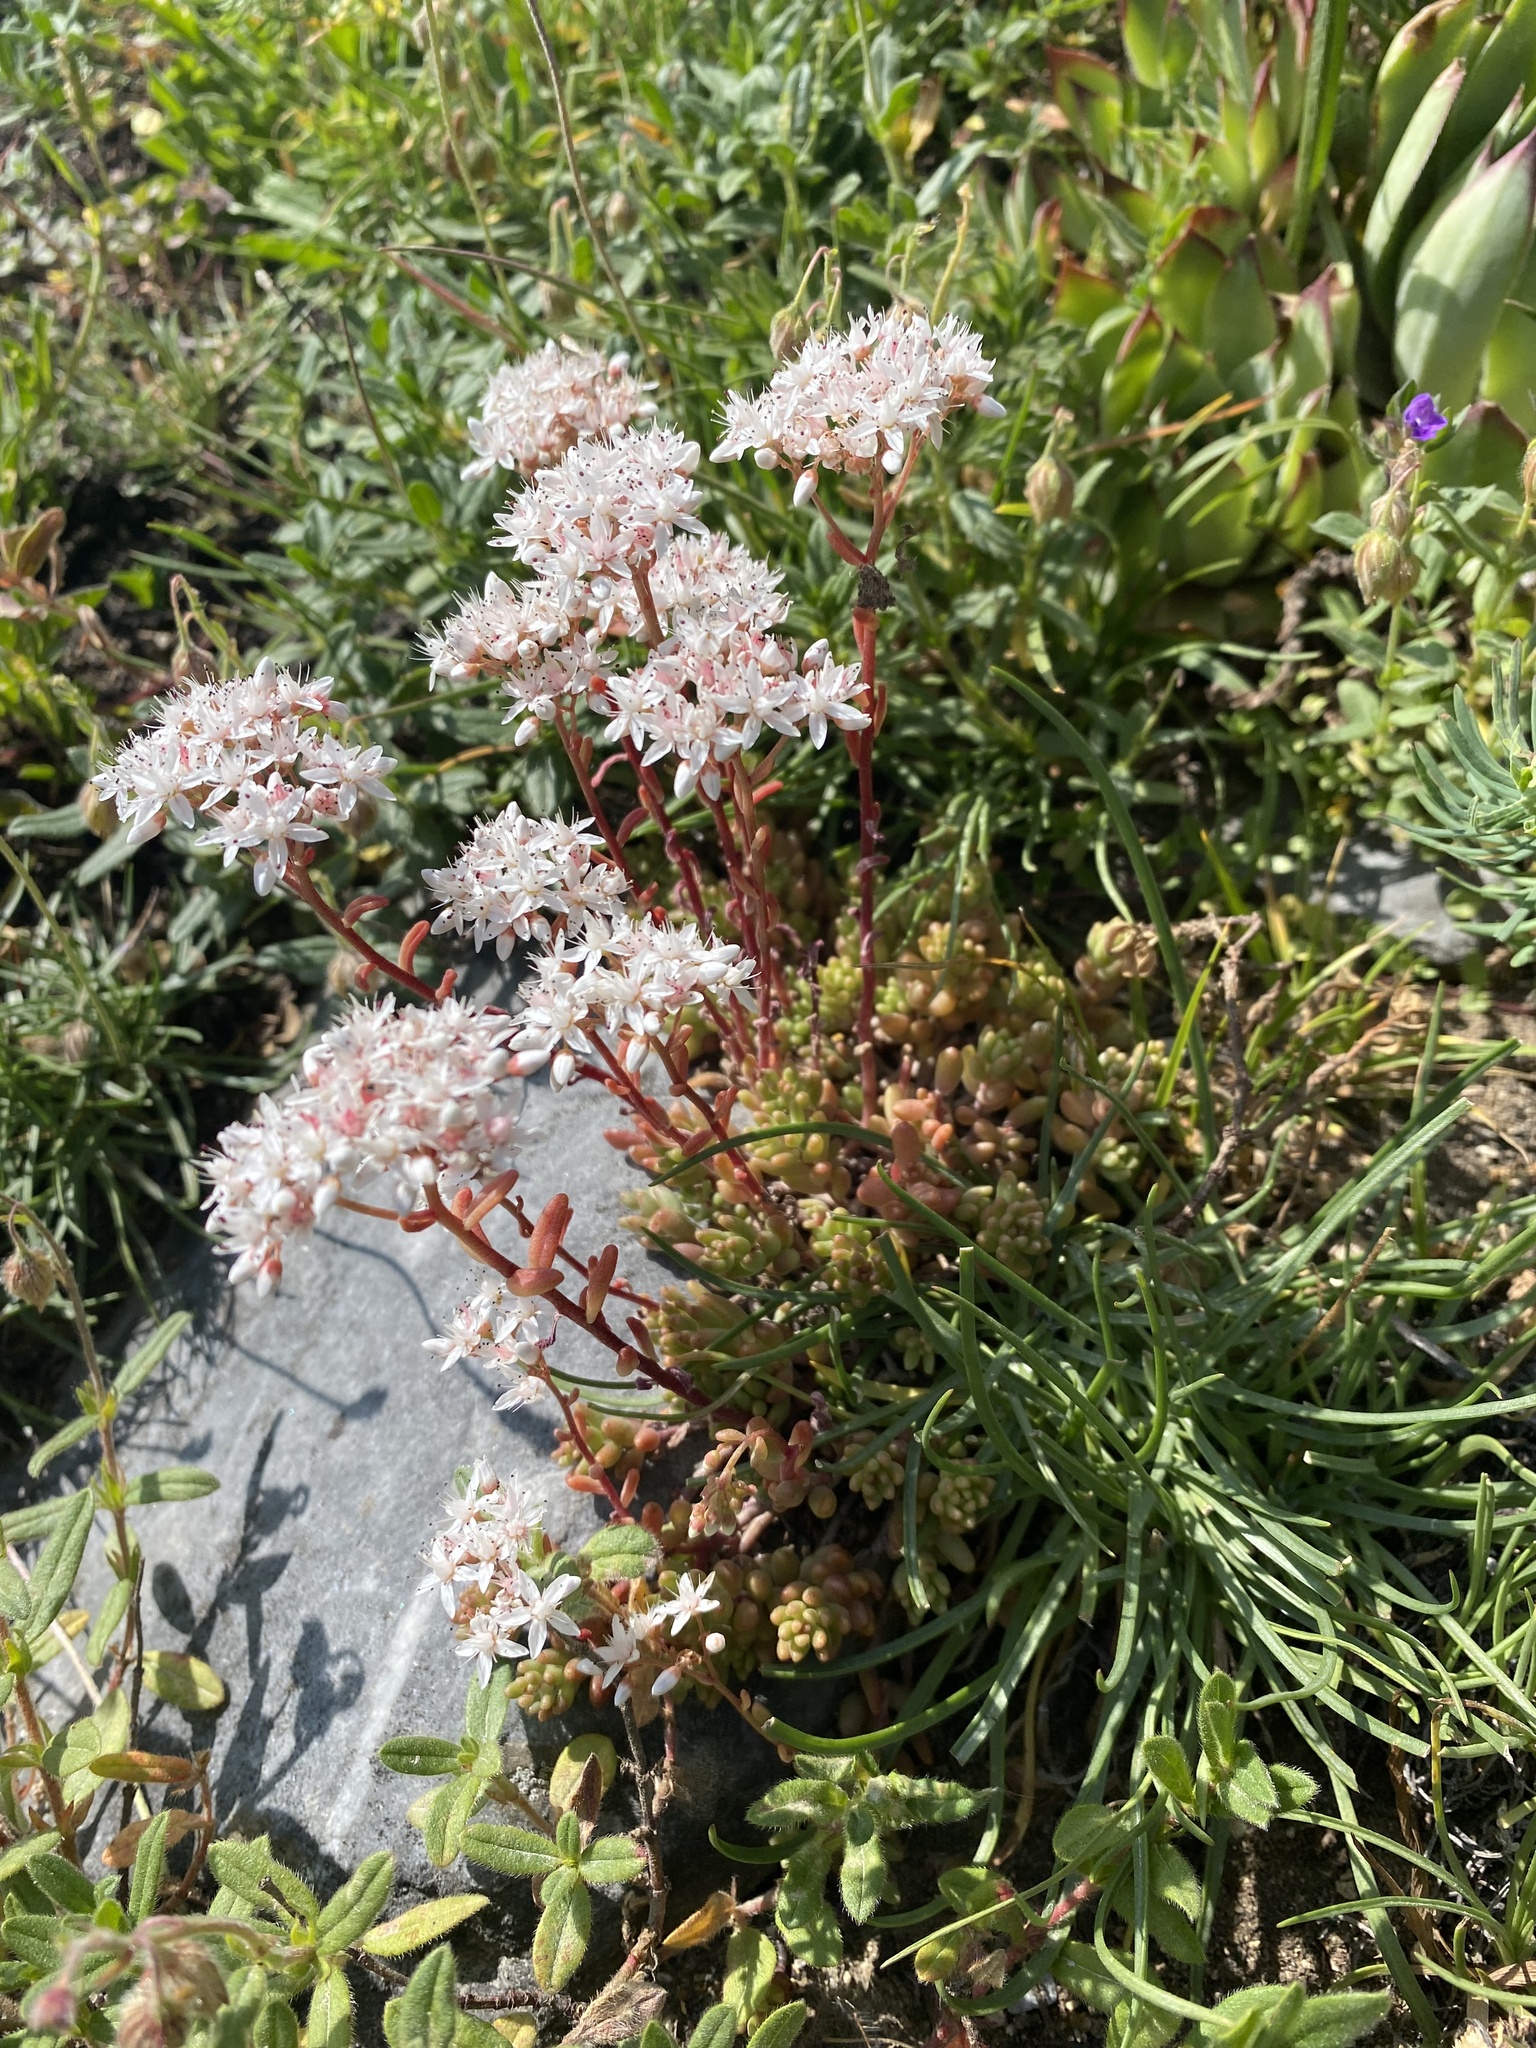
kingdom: Plantae
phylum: Tracheophyta
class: Magnoliopsida
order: Saxifragales
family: Crassulaceae
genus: Sedum
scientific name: Sedum album
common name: White stonecrop
